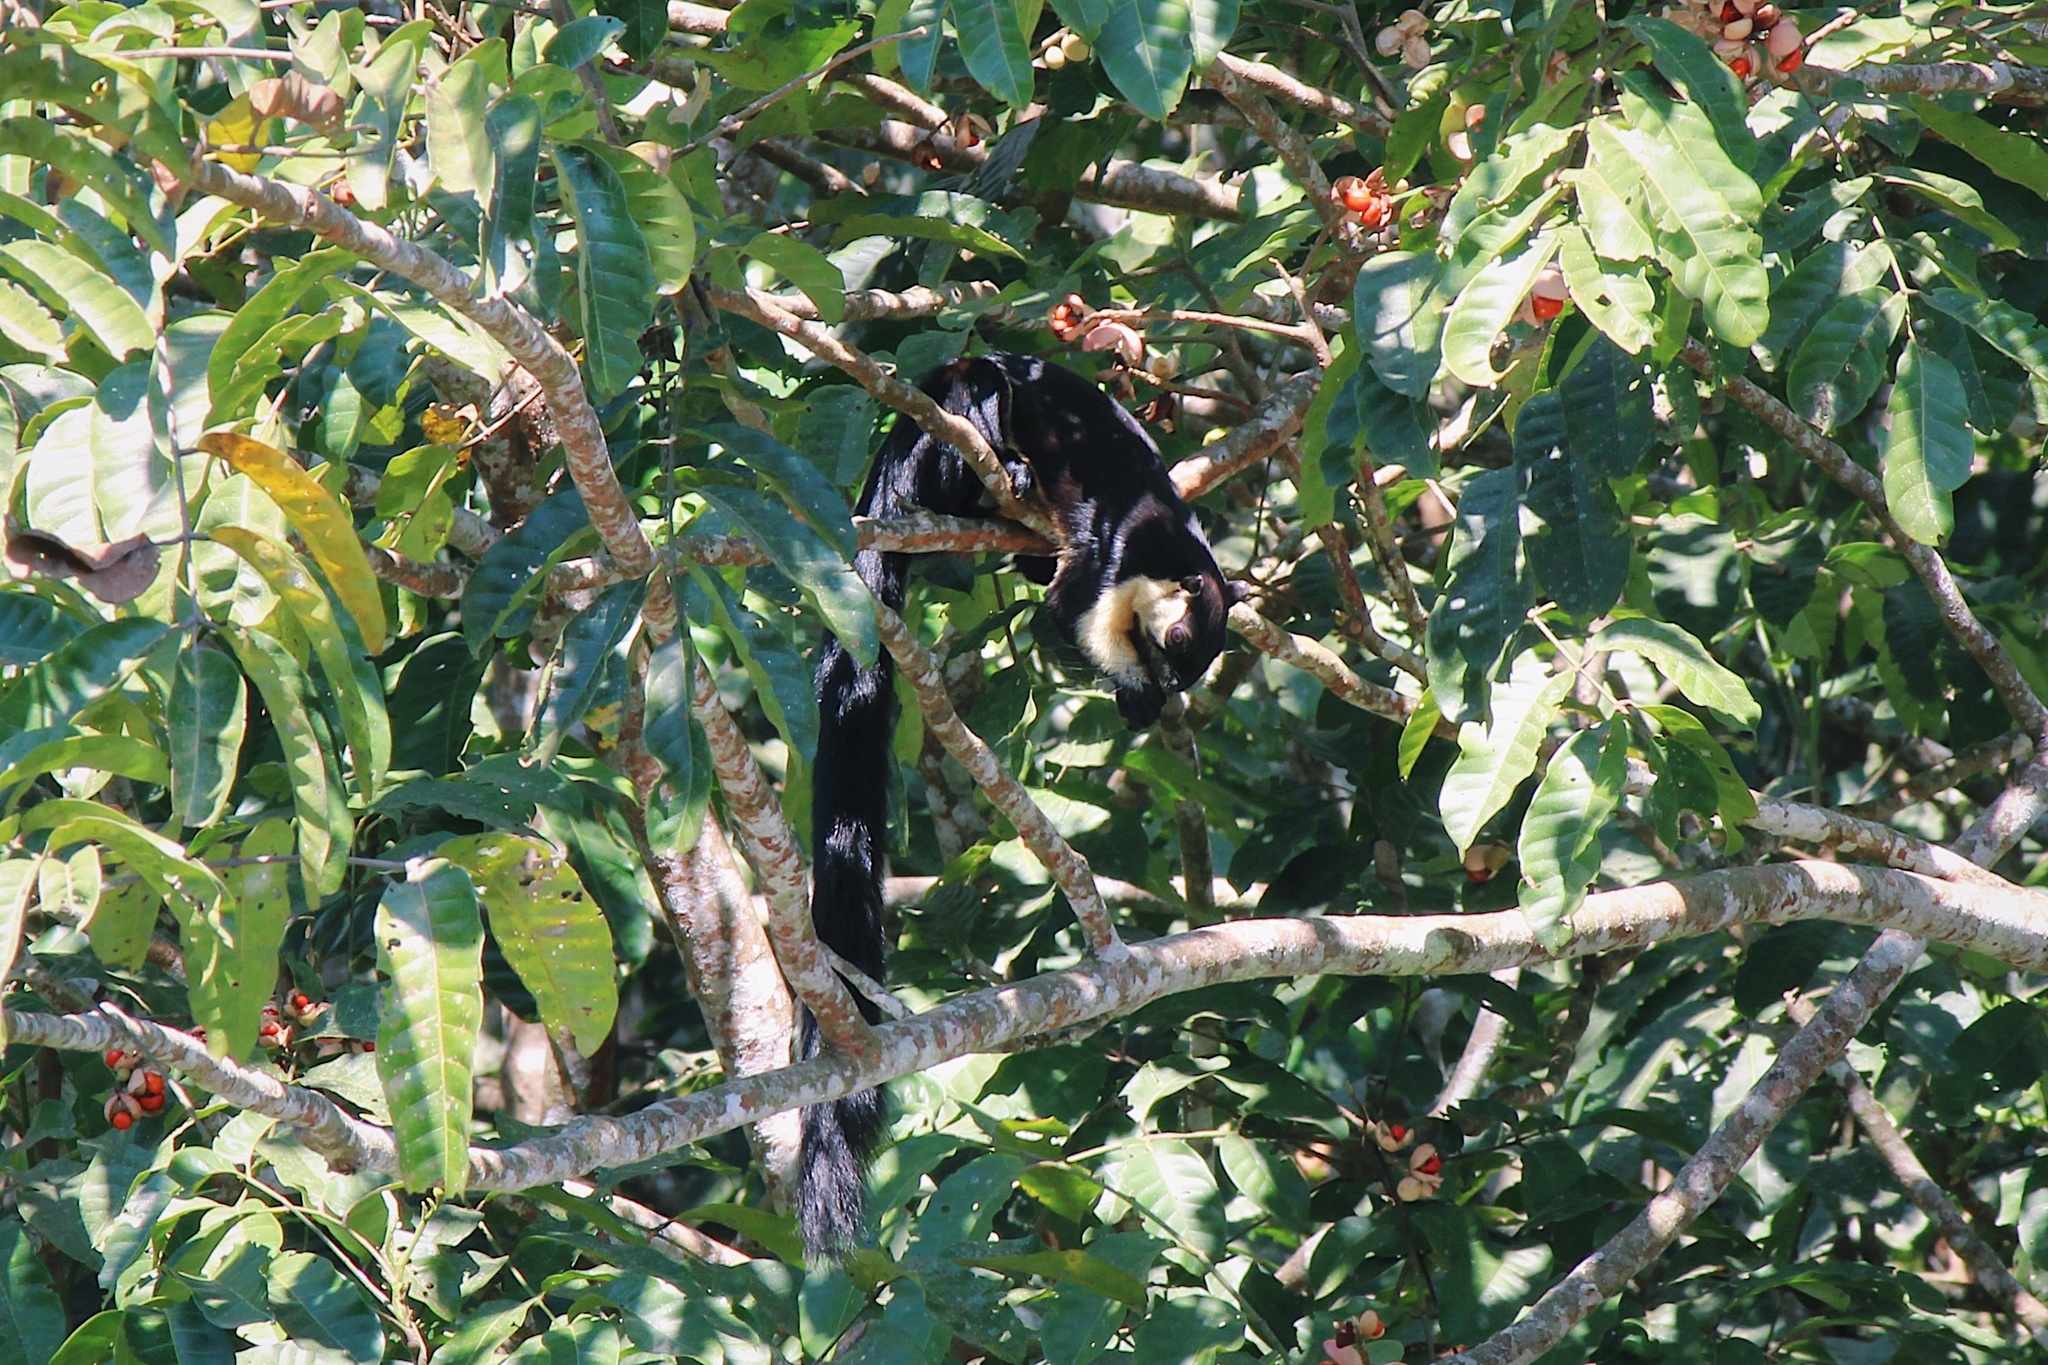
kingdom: Animalia
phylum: Chordata
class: Mammalia
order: Rodentia
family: Sciuridae
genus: Ratufa
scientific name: Ratufa bicolor
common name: Black giant squirrel
